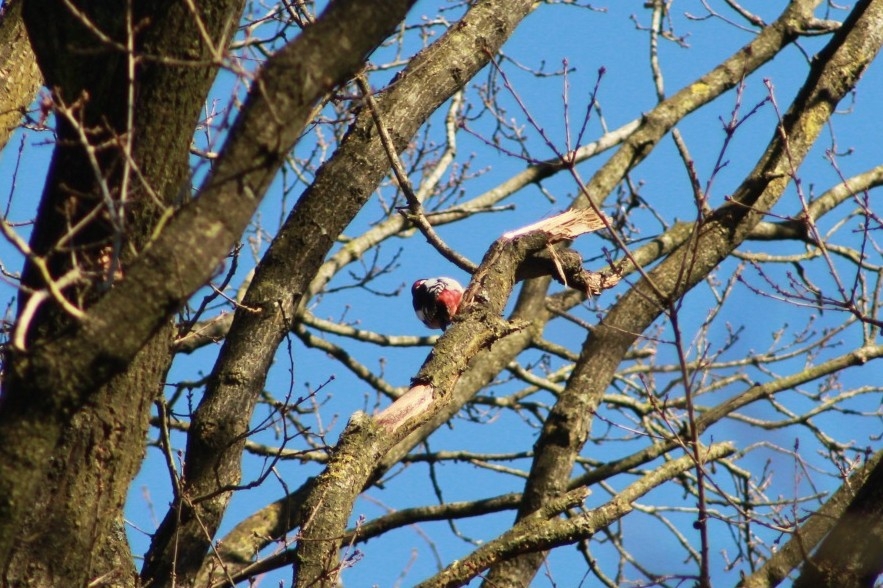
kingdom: Animalia
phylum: Chordata
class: Aves
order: Piciformes
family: Picidae
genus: Dendrocopos
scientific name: Dendrocopos major
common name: Great spotted woodpecker
